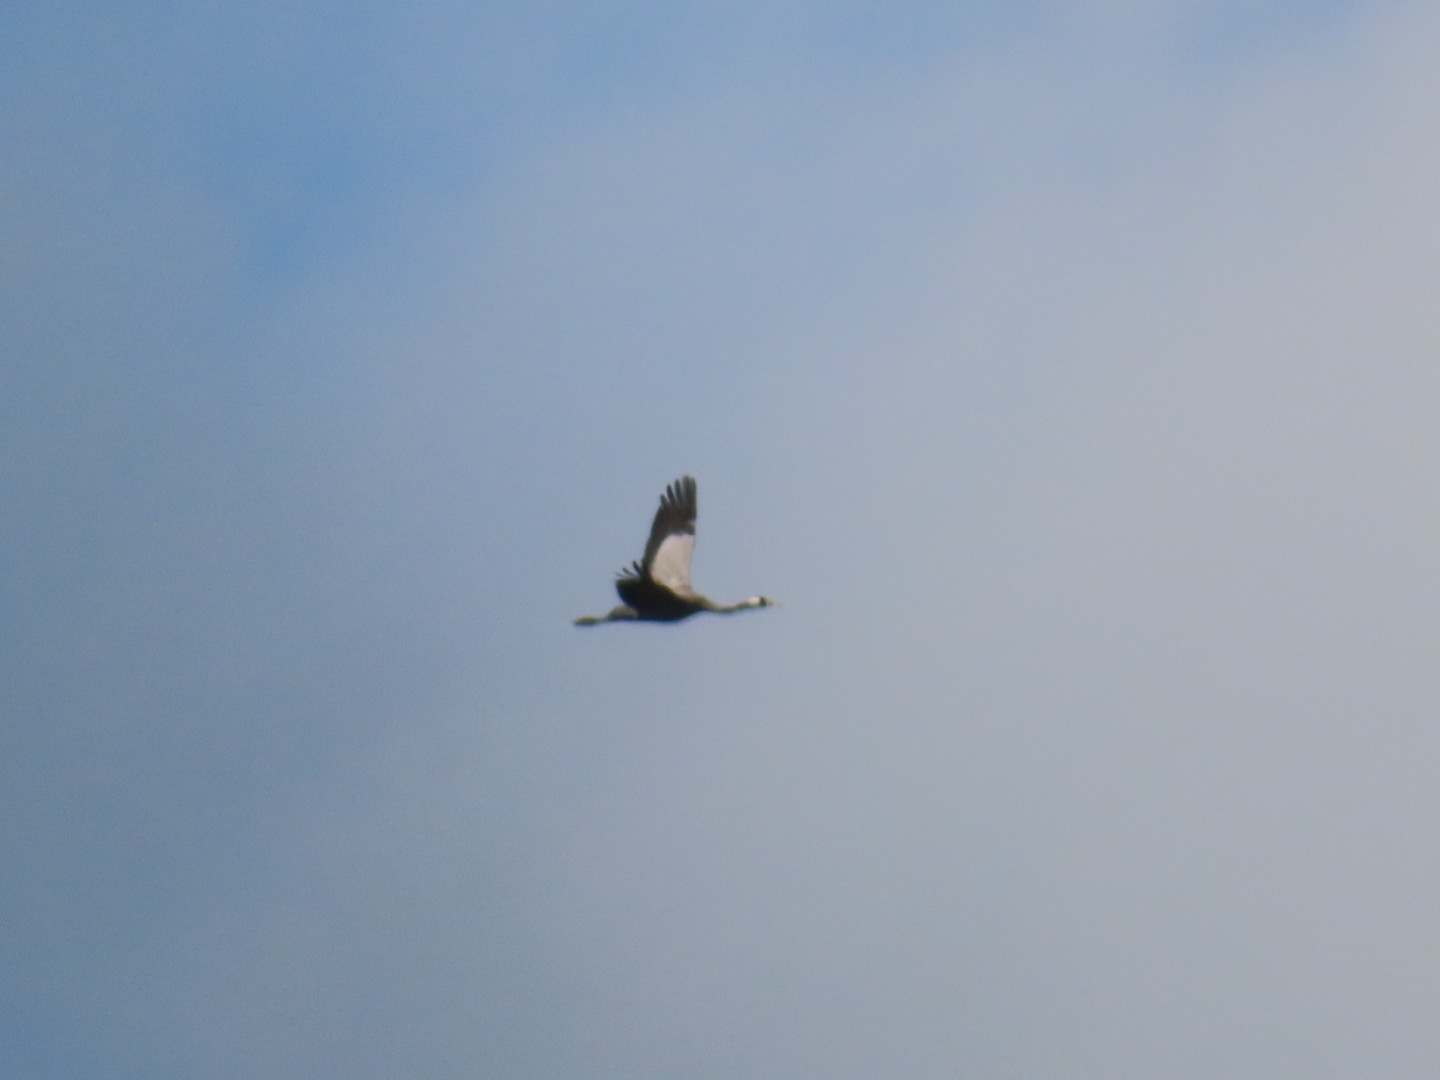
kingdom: Animalia
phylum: Chordata
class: Aves
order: Gruiformes
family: Gruidae
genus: Grus
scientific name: Grus grus
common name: Common crane
